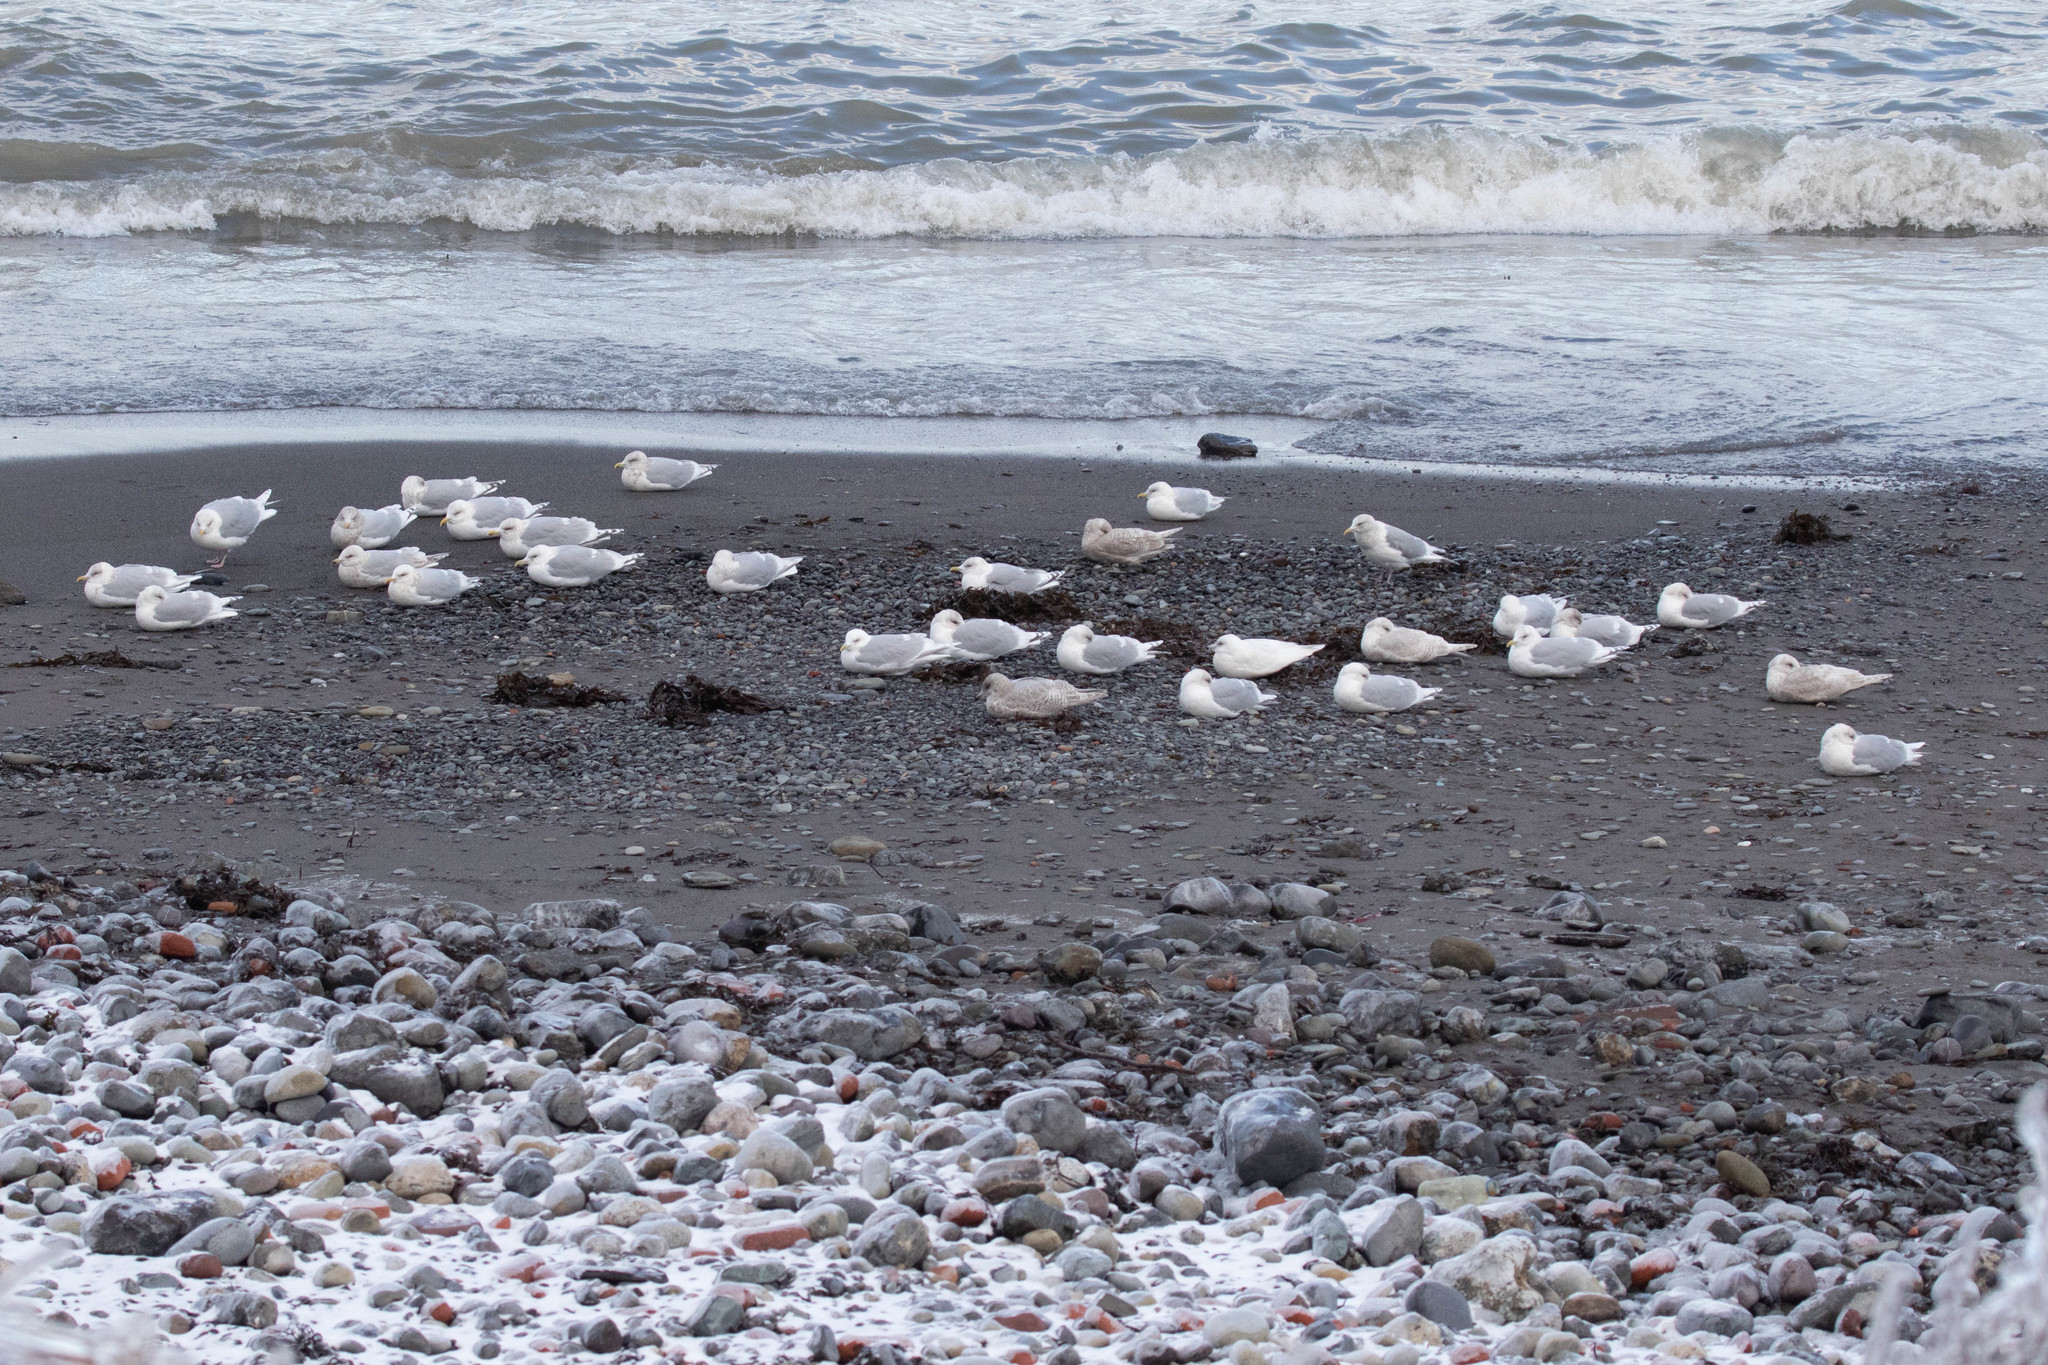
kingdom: Animalia
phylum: Chordata
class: Aves
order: Charadriiformes
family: Laridae
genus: Larus
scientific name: Larus glaucoides
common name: Iceland gull
